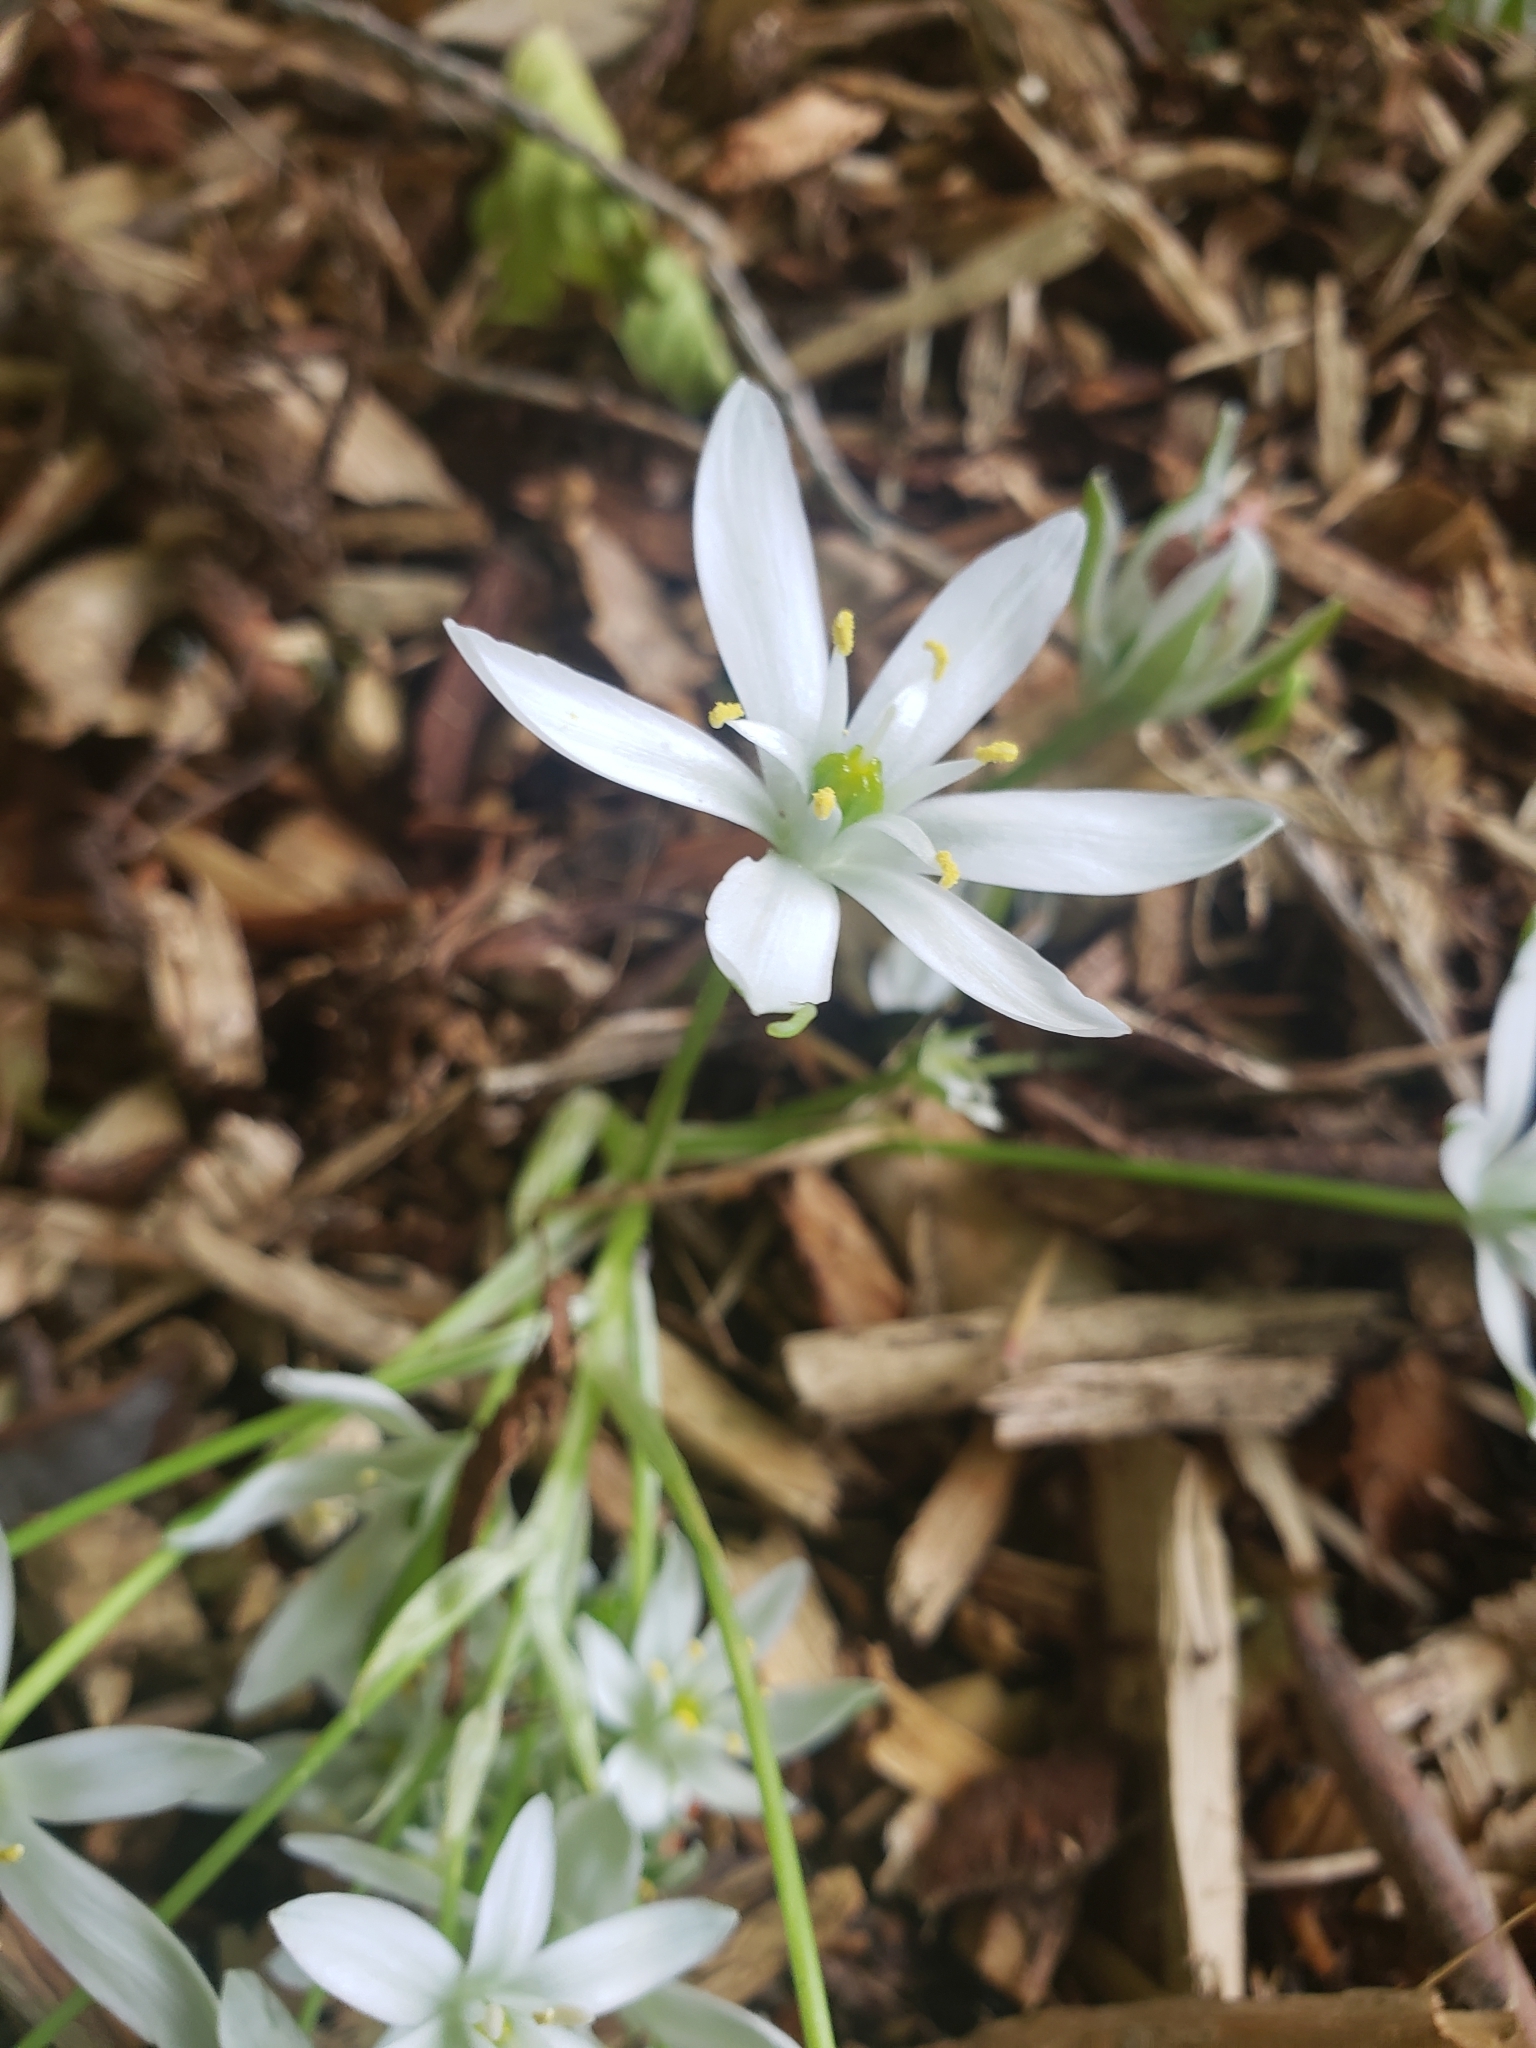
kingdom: Plantae
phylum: Tracheophyta
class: Liliopsida
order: Asparagales
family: Asparagaceae
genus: Ornithogalum
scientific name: Ornithogalum umbellatum
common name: Garden star-of-bethlehem
